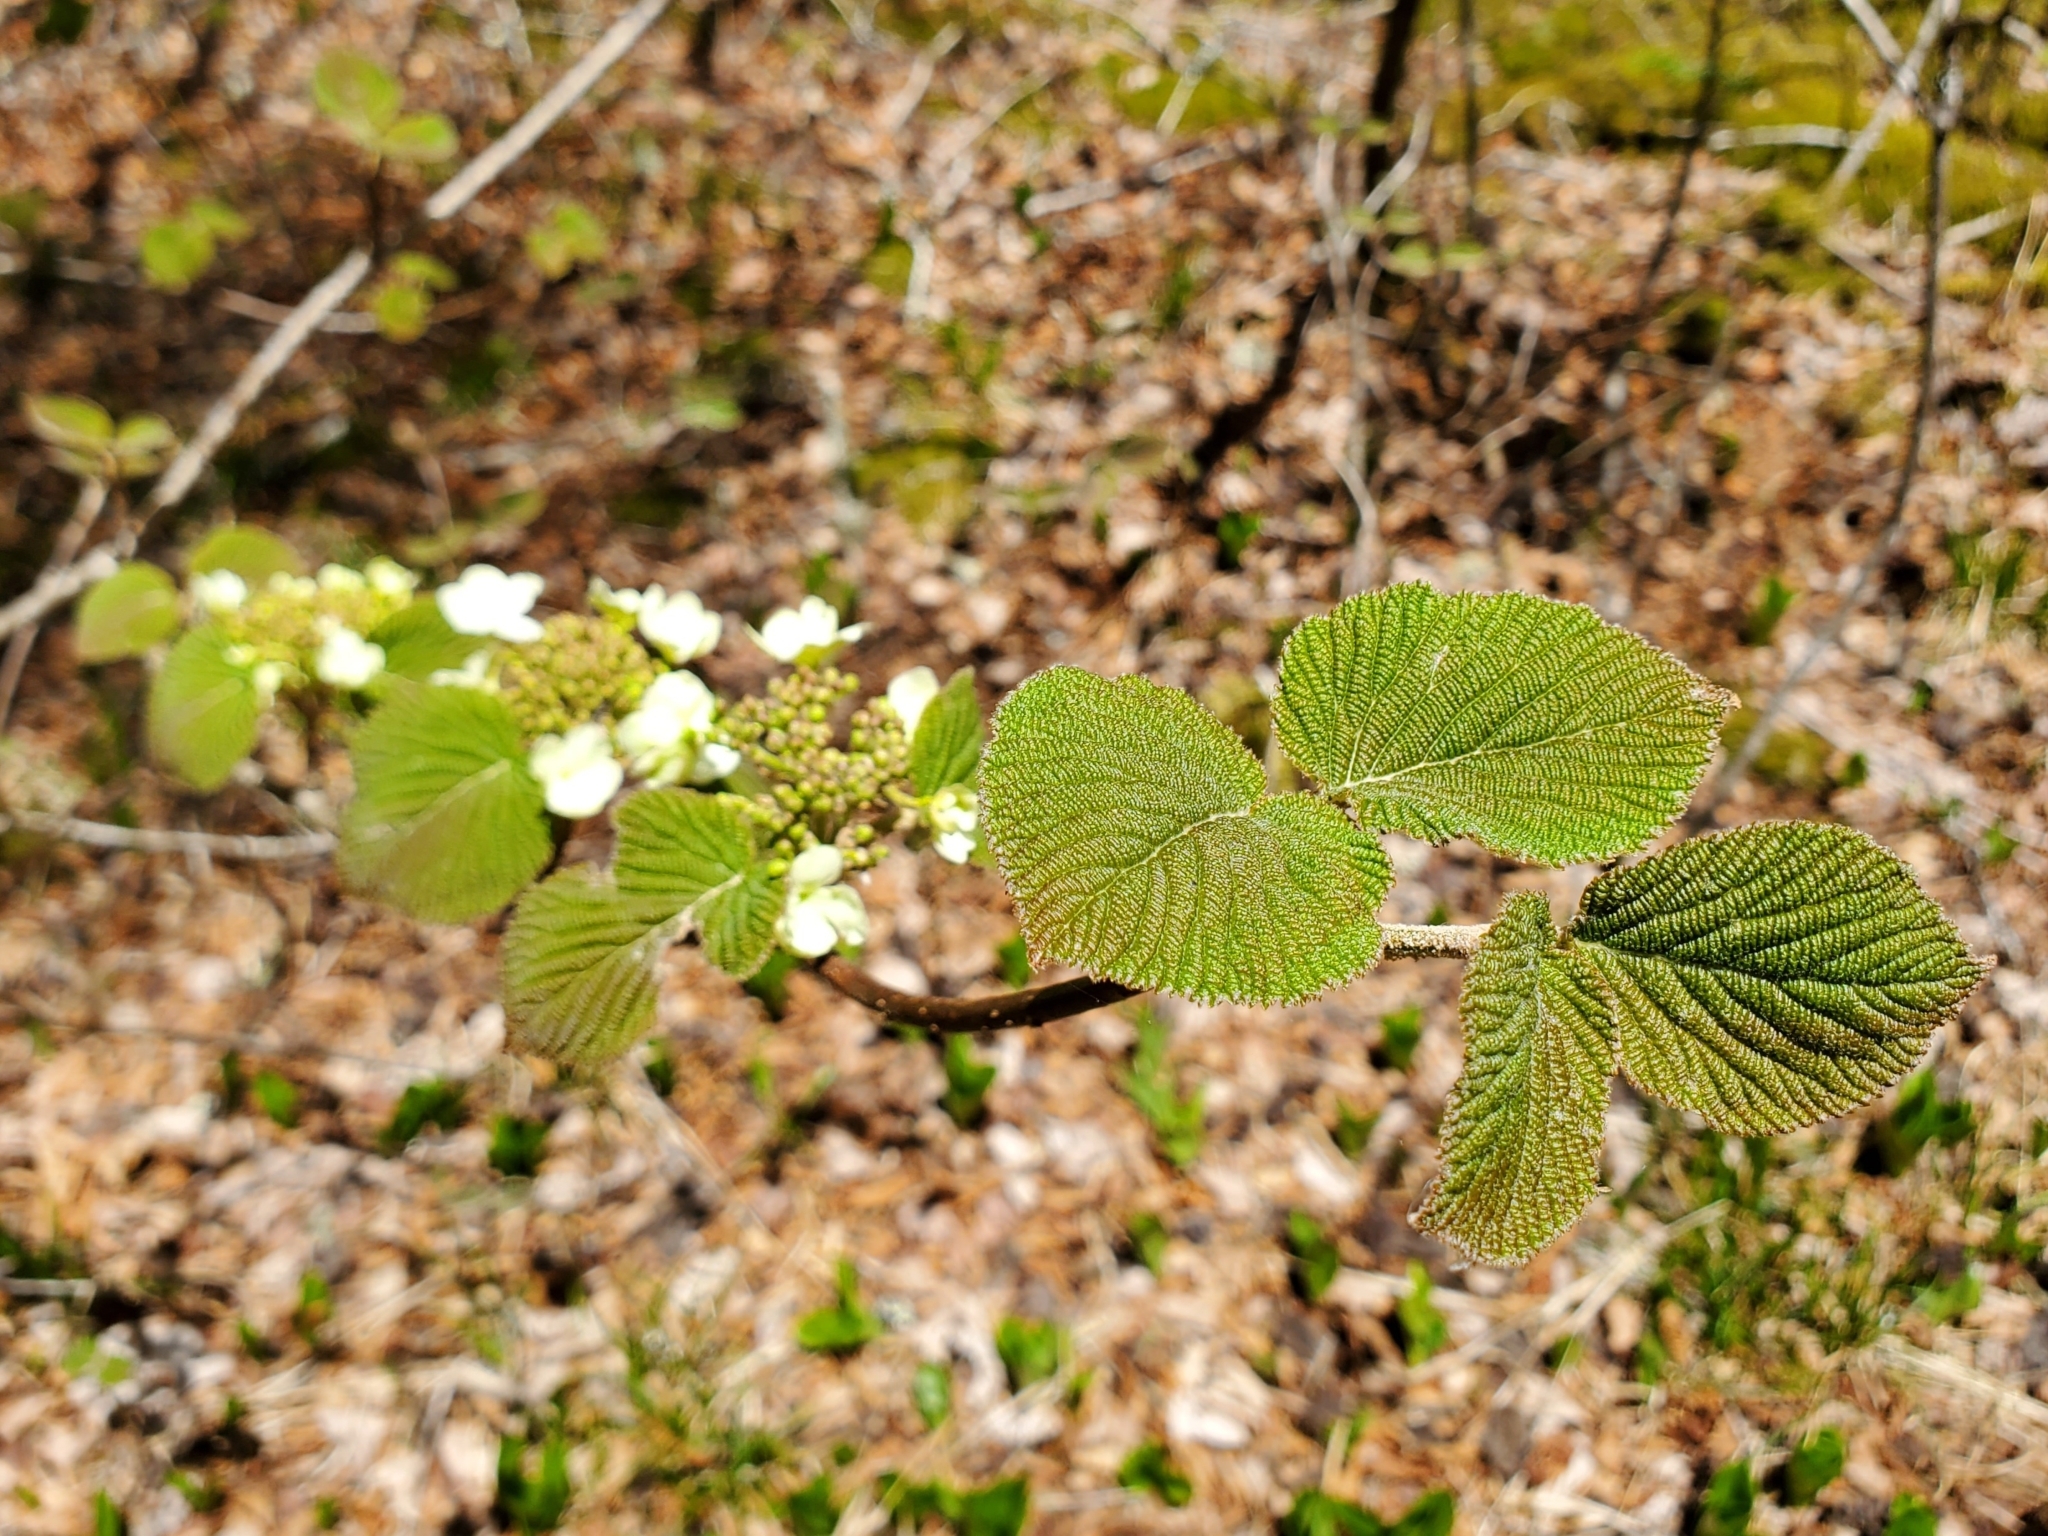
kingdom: Plantae
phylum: Tracheophyta
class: Magnoliopsida
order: Dipsacales
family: Viburnaceae
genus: Viburnum
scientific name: Viburnum lantanoides
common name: Hobblebush
